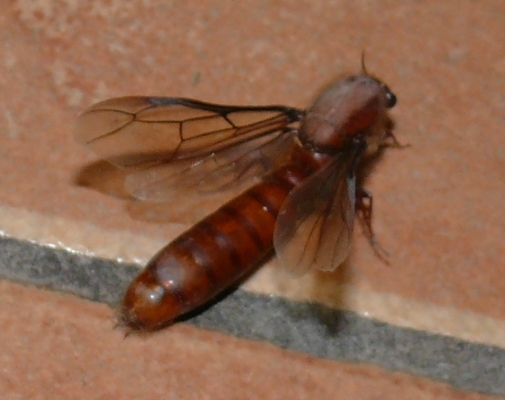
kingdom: Animalia
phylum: Arthropoda
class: Insecta
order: Hymenoptera
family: Formicidae
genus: Dorylus
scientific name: Dorylus helvolus
